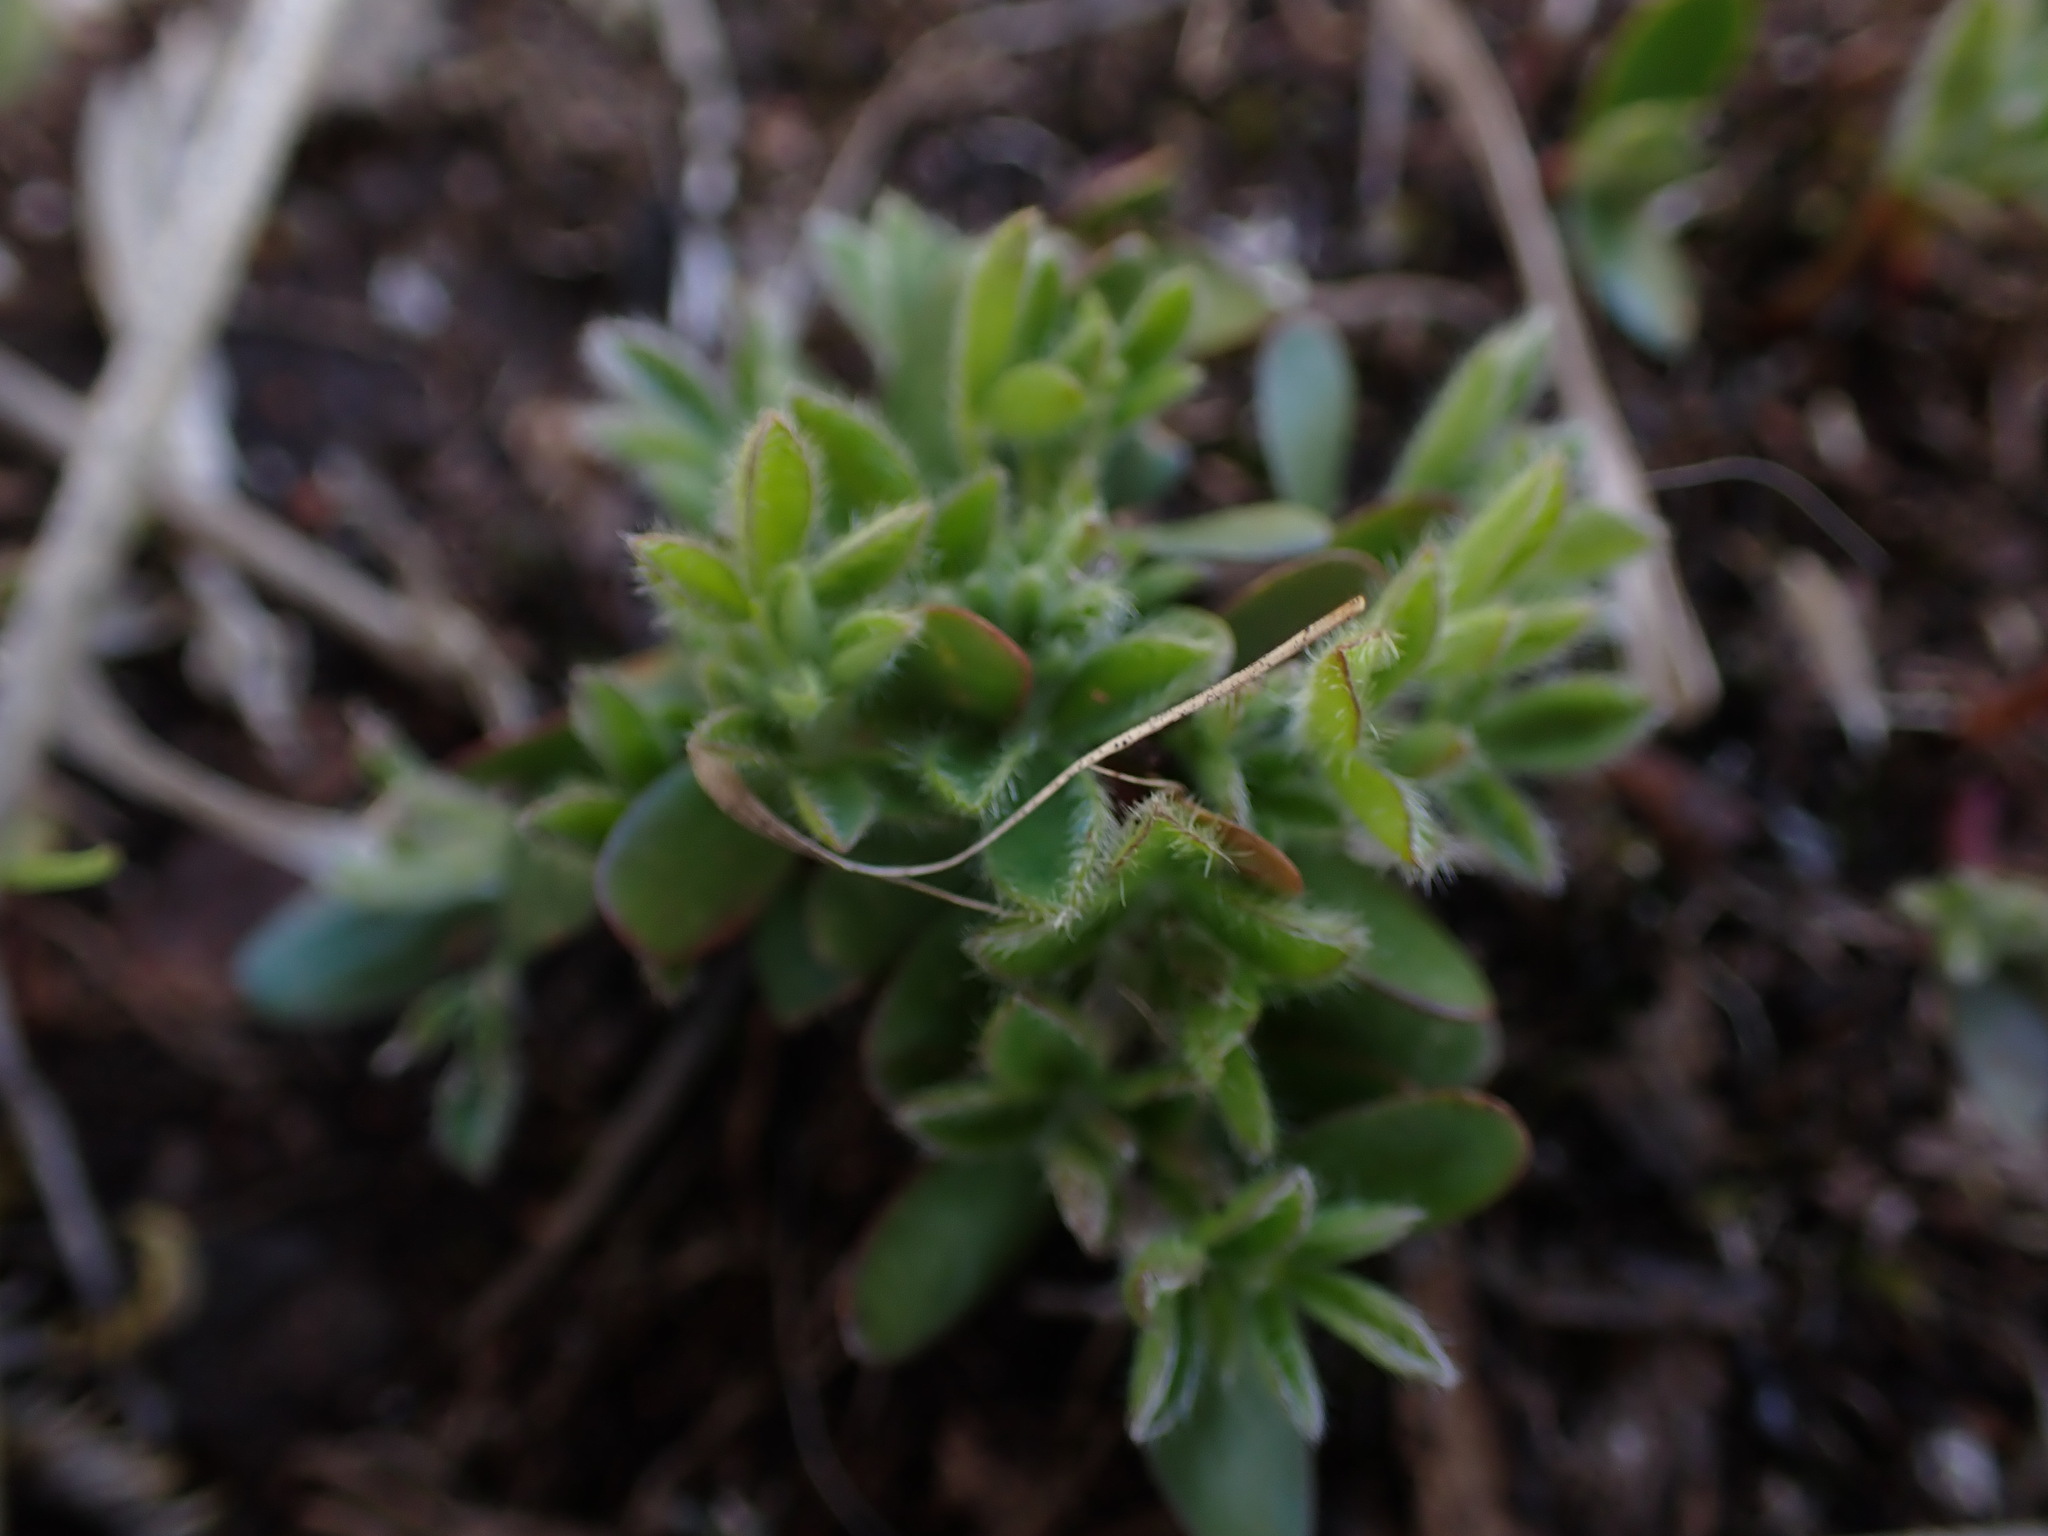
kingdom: Plantae
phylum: Tracheophyta
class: Magnoliopsida
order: Fabales
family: Fabaceae
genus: Cytisus
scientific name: Cytisus scoparius
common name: Scotch broom
